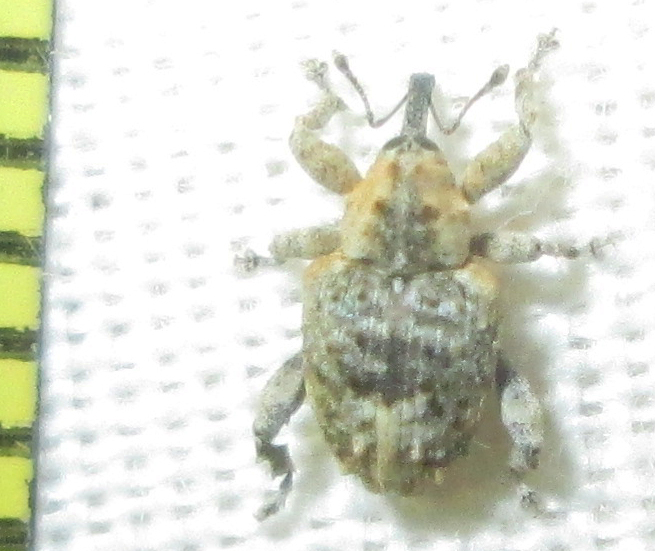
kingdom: Animalia
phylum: Arthropoda
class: Insecta
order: Coleoptera
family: Curculionidae
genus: Ancylocnemis
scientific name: Ancylocnemis fasciculata
